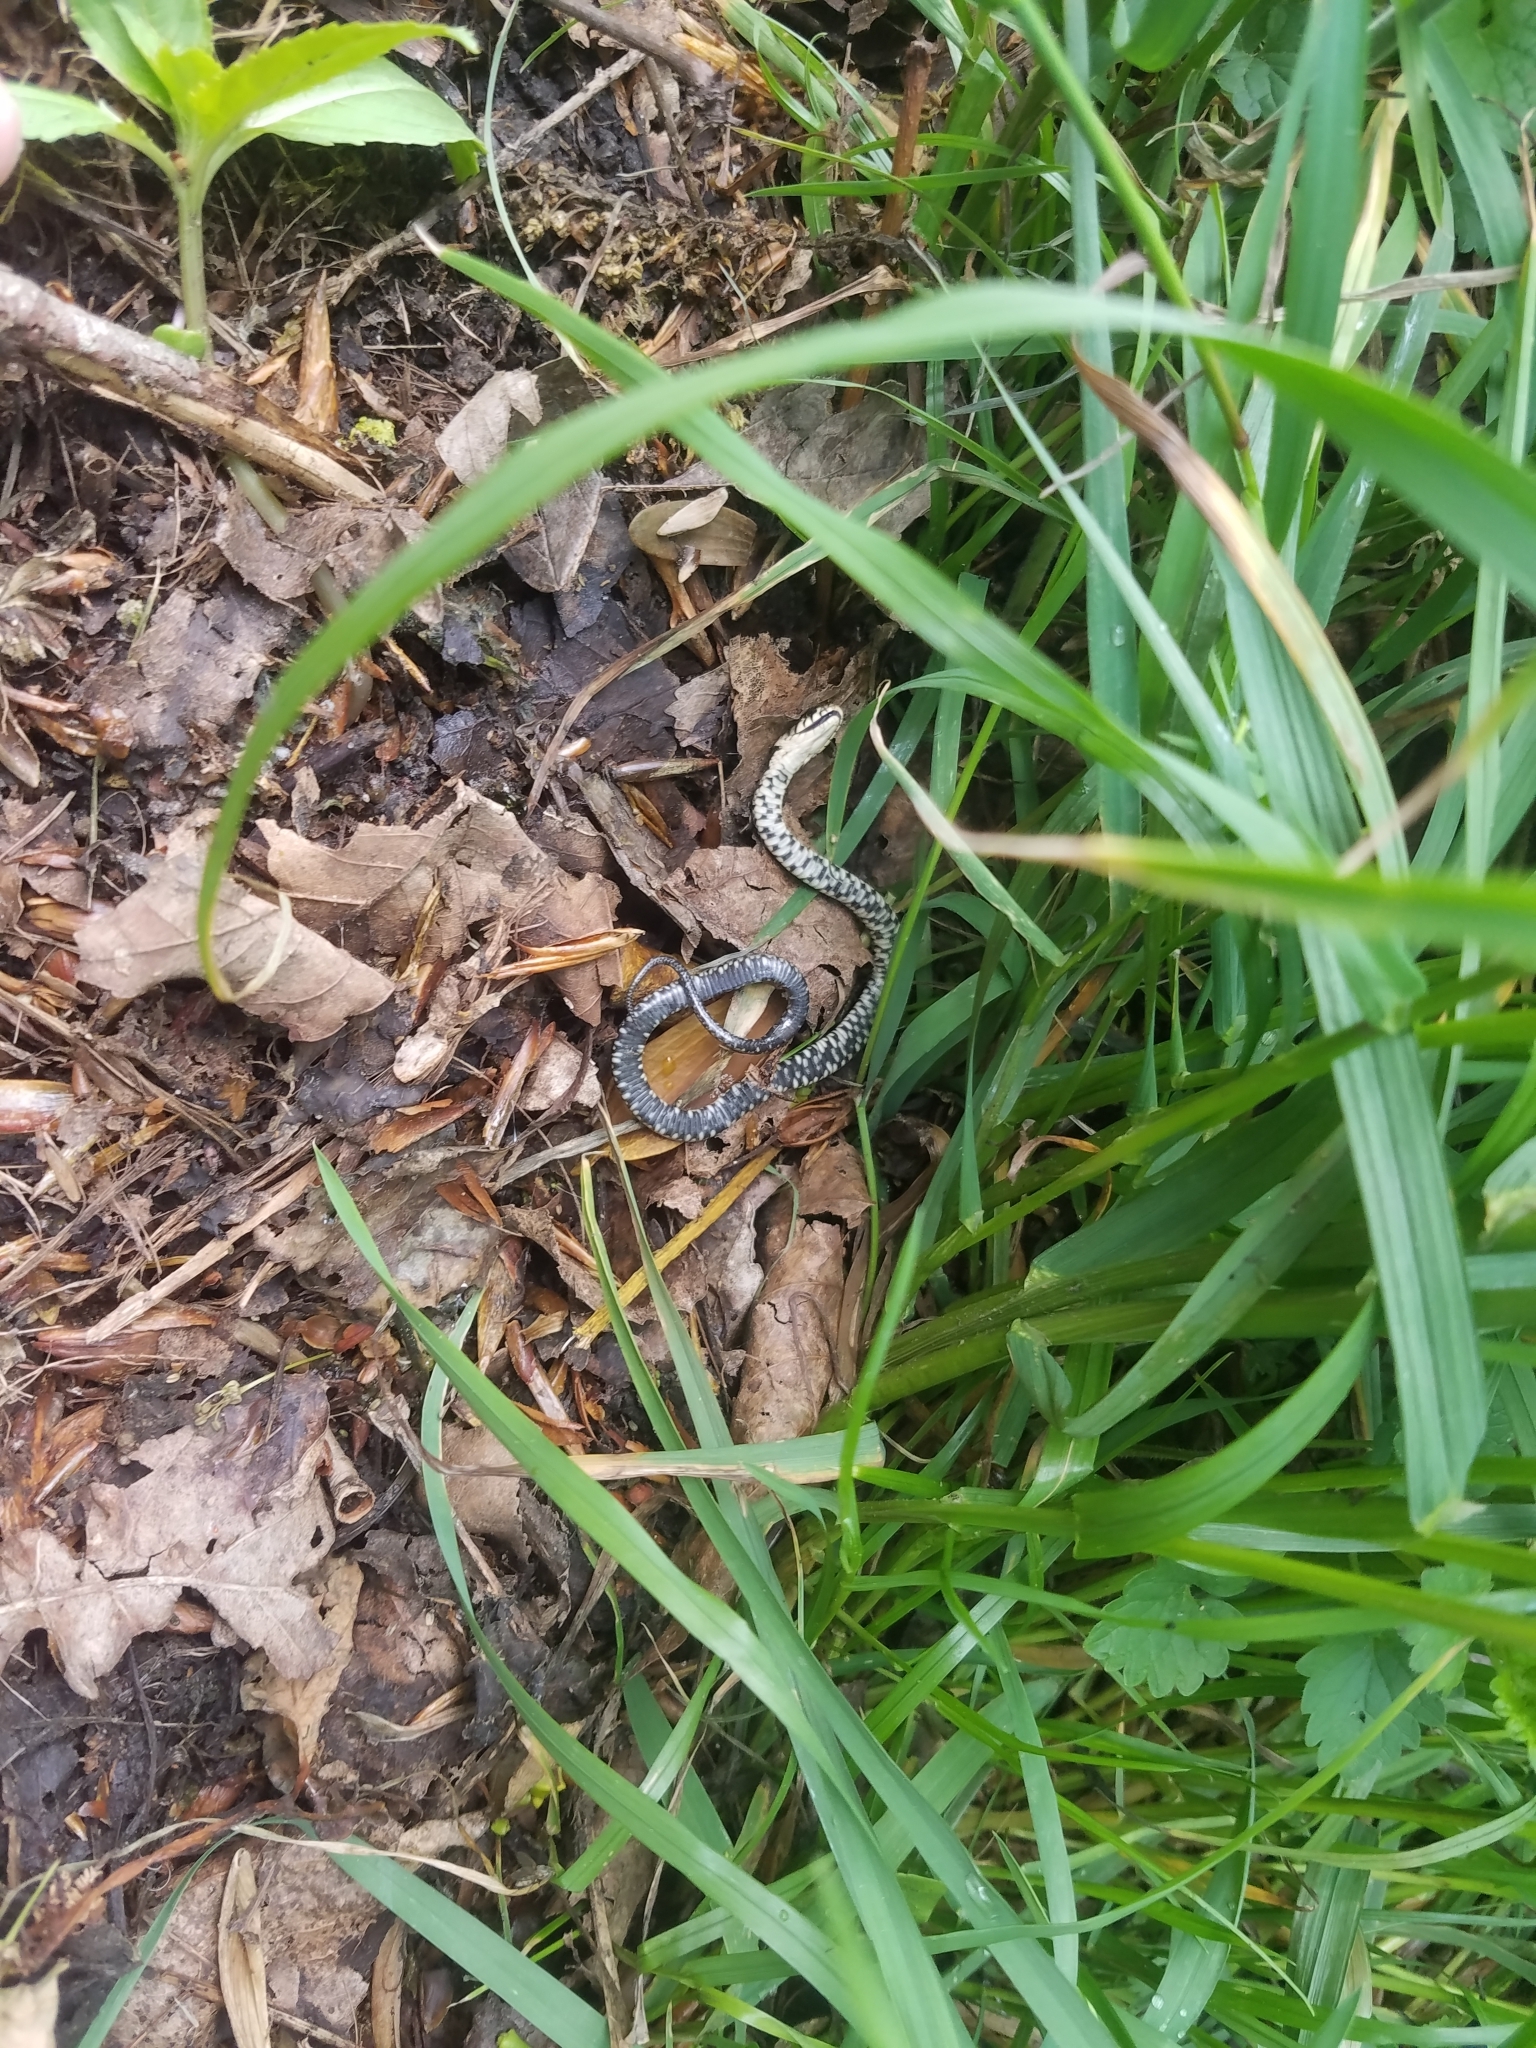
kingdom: Animalia
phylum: Chordata
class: Squamata
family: Colubridae
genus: Natrix
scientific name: Natrix helvetica
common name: Banded grass snake
